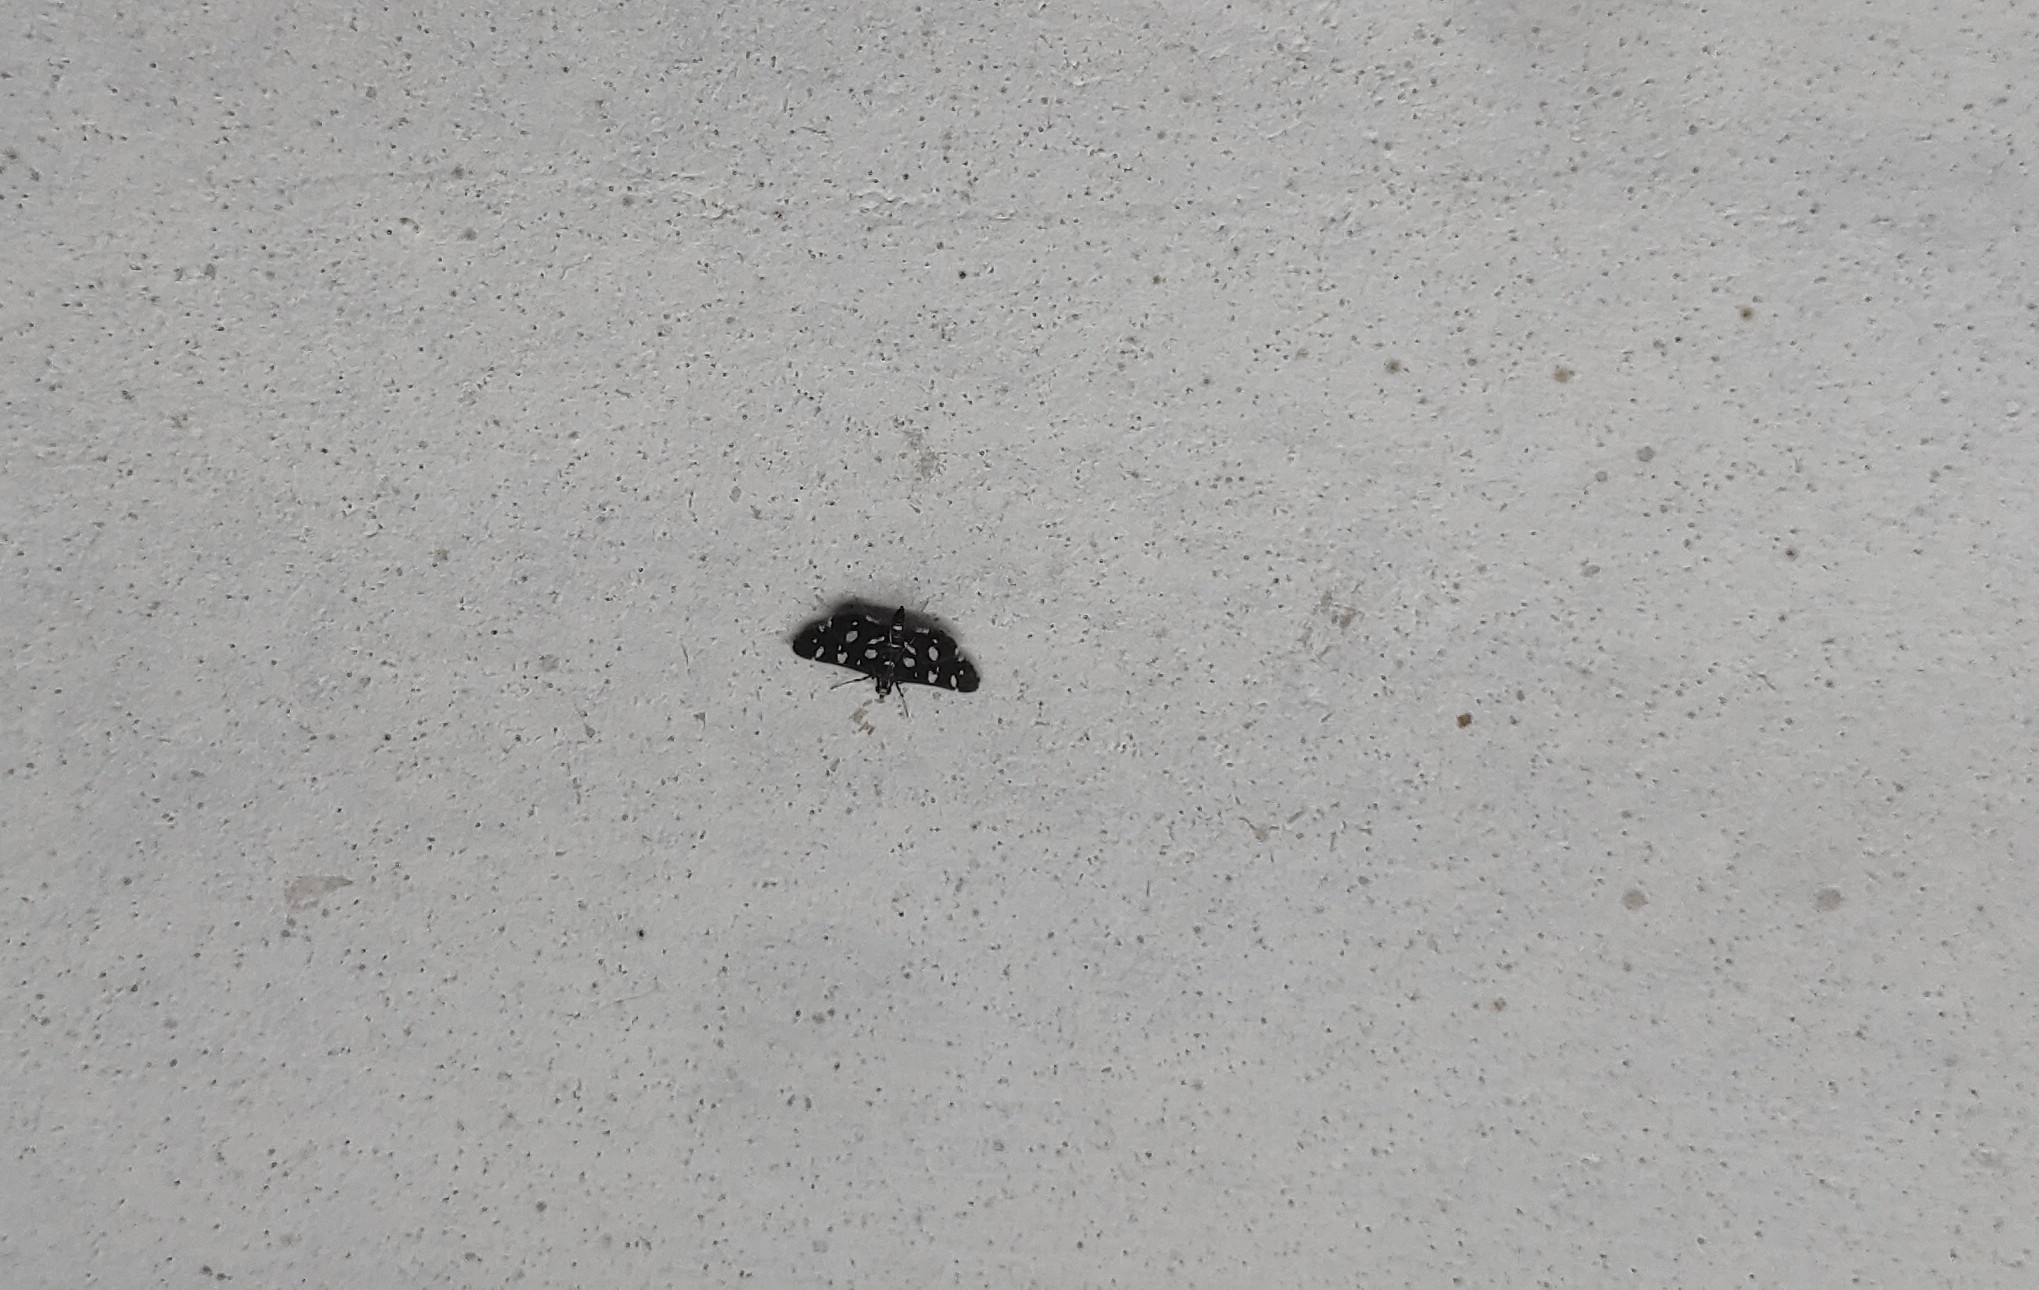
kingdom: Animalia
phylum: Arthropoda
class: Insecta
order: Lepidoptera
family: Crambidae
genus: Bocchoris
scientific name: Bocchoris inspersalis
